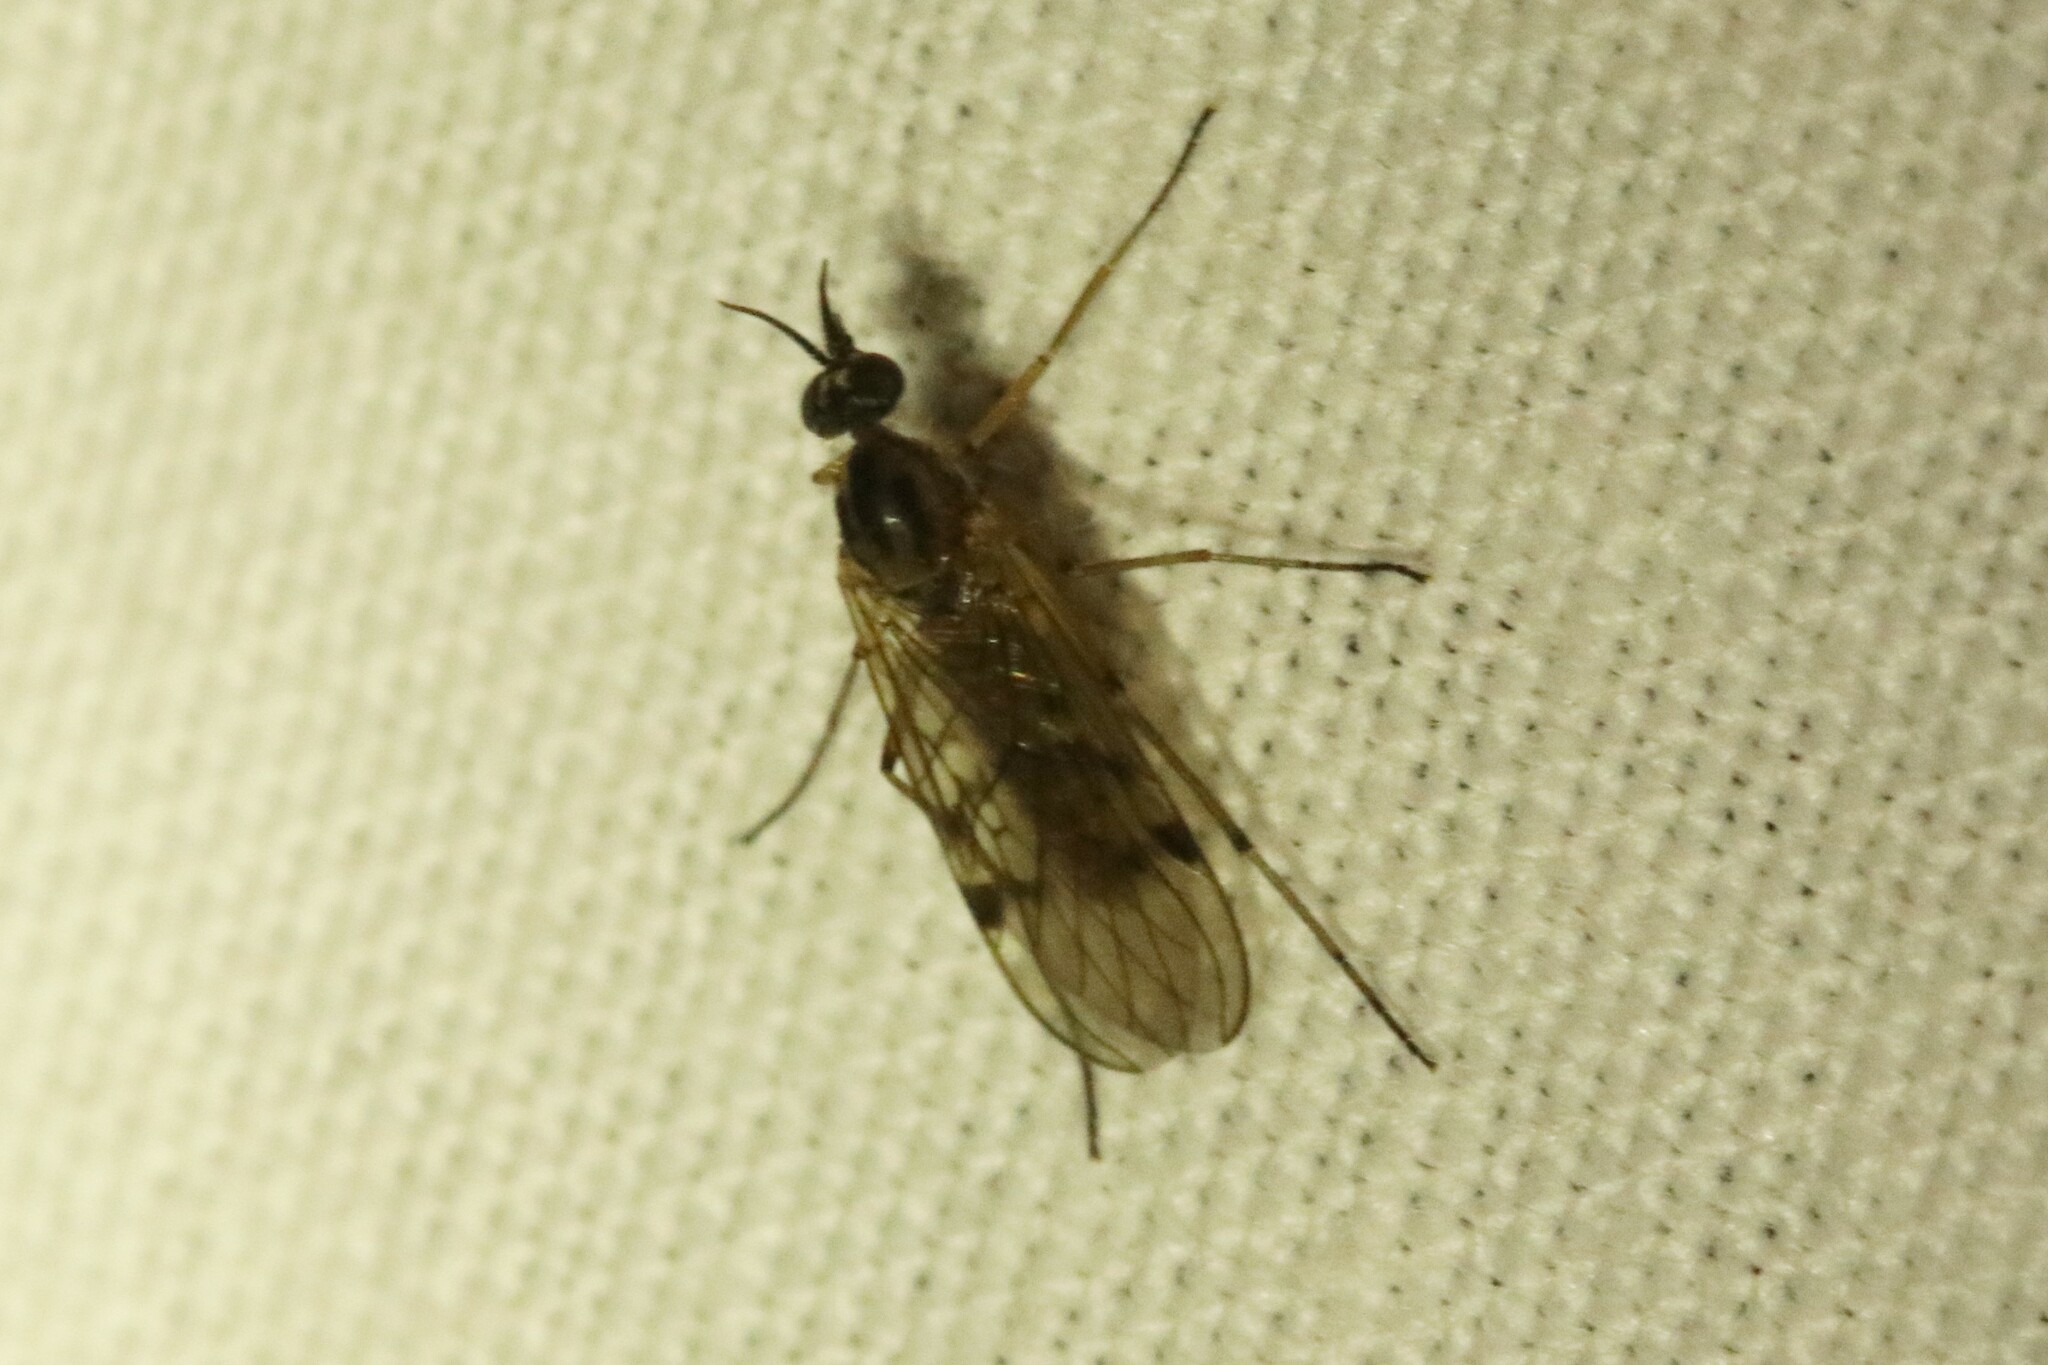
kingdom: Animalia
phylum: Arthropoda
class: Insecta
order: Diptera
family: Anisopodidae
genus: Sylvicola
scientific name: Sylvicola punctatus
